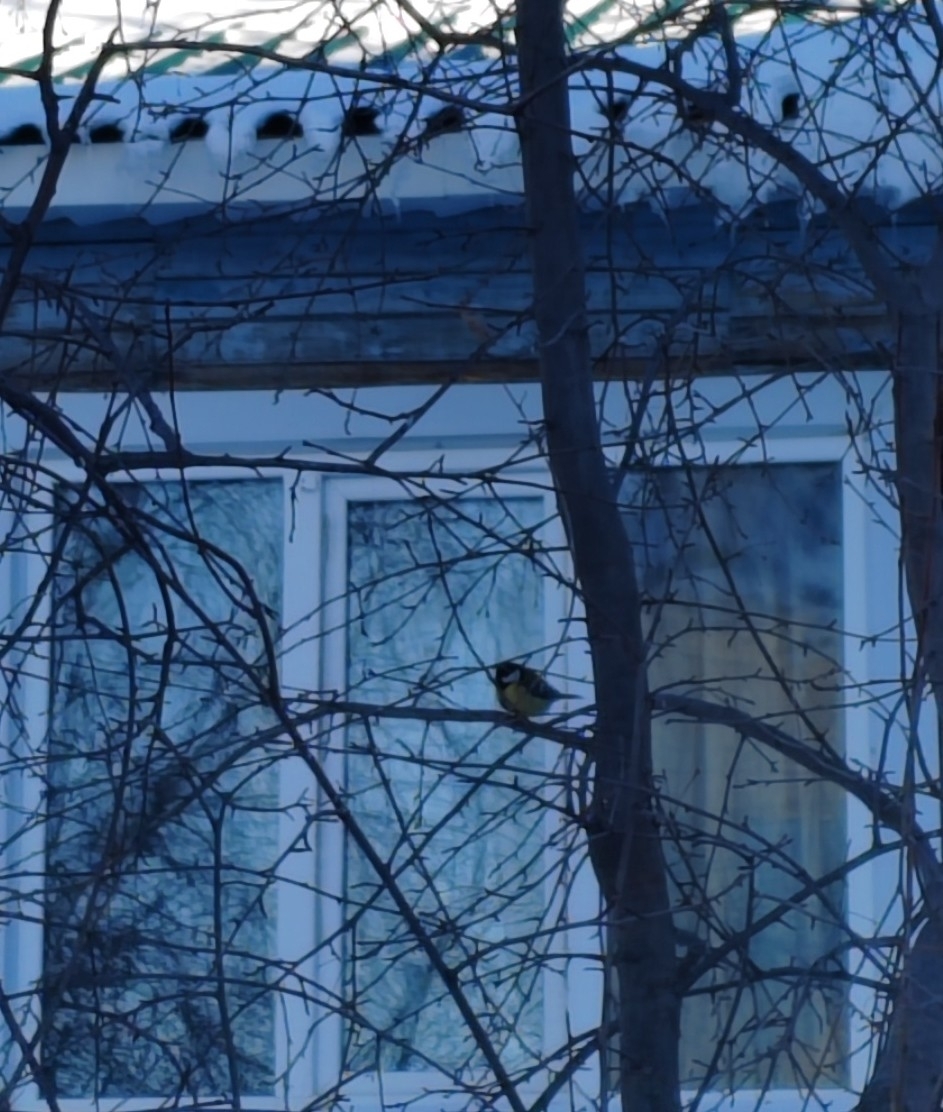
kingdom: Animalia
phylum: Chordata
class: Aves
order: Passeriformes
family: Paridae
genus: Parus
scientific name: Parus major
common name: Great tit
